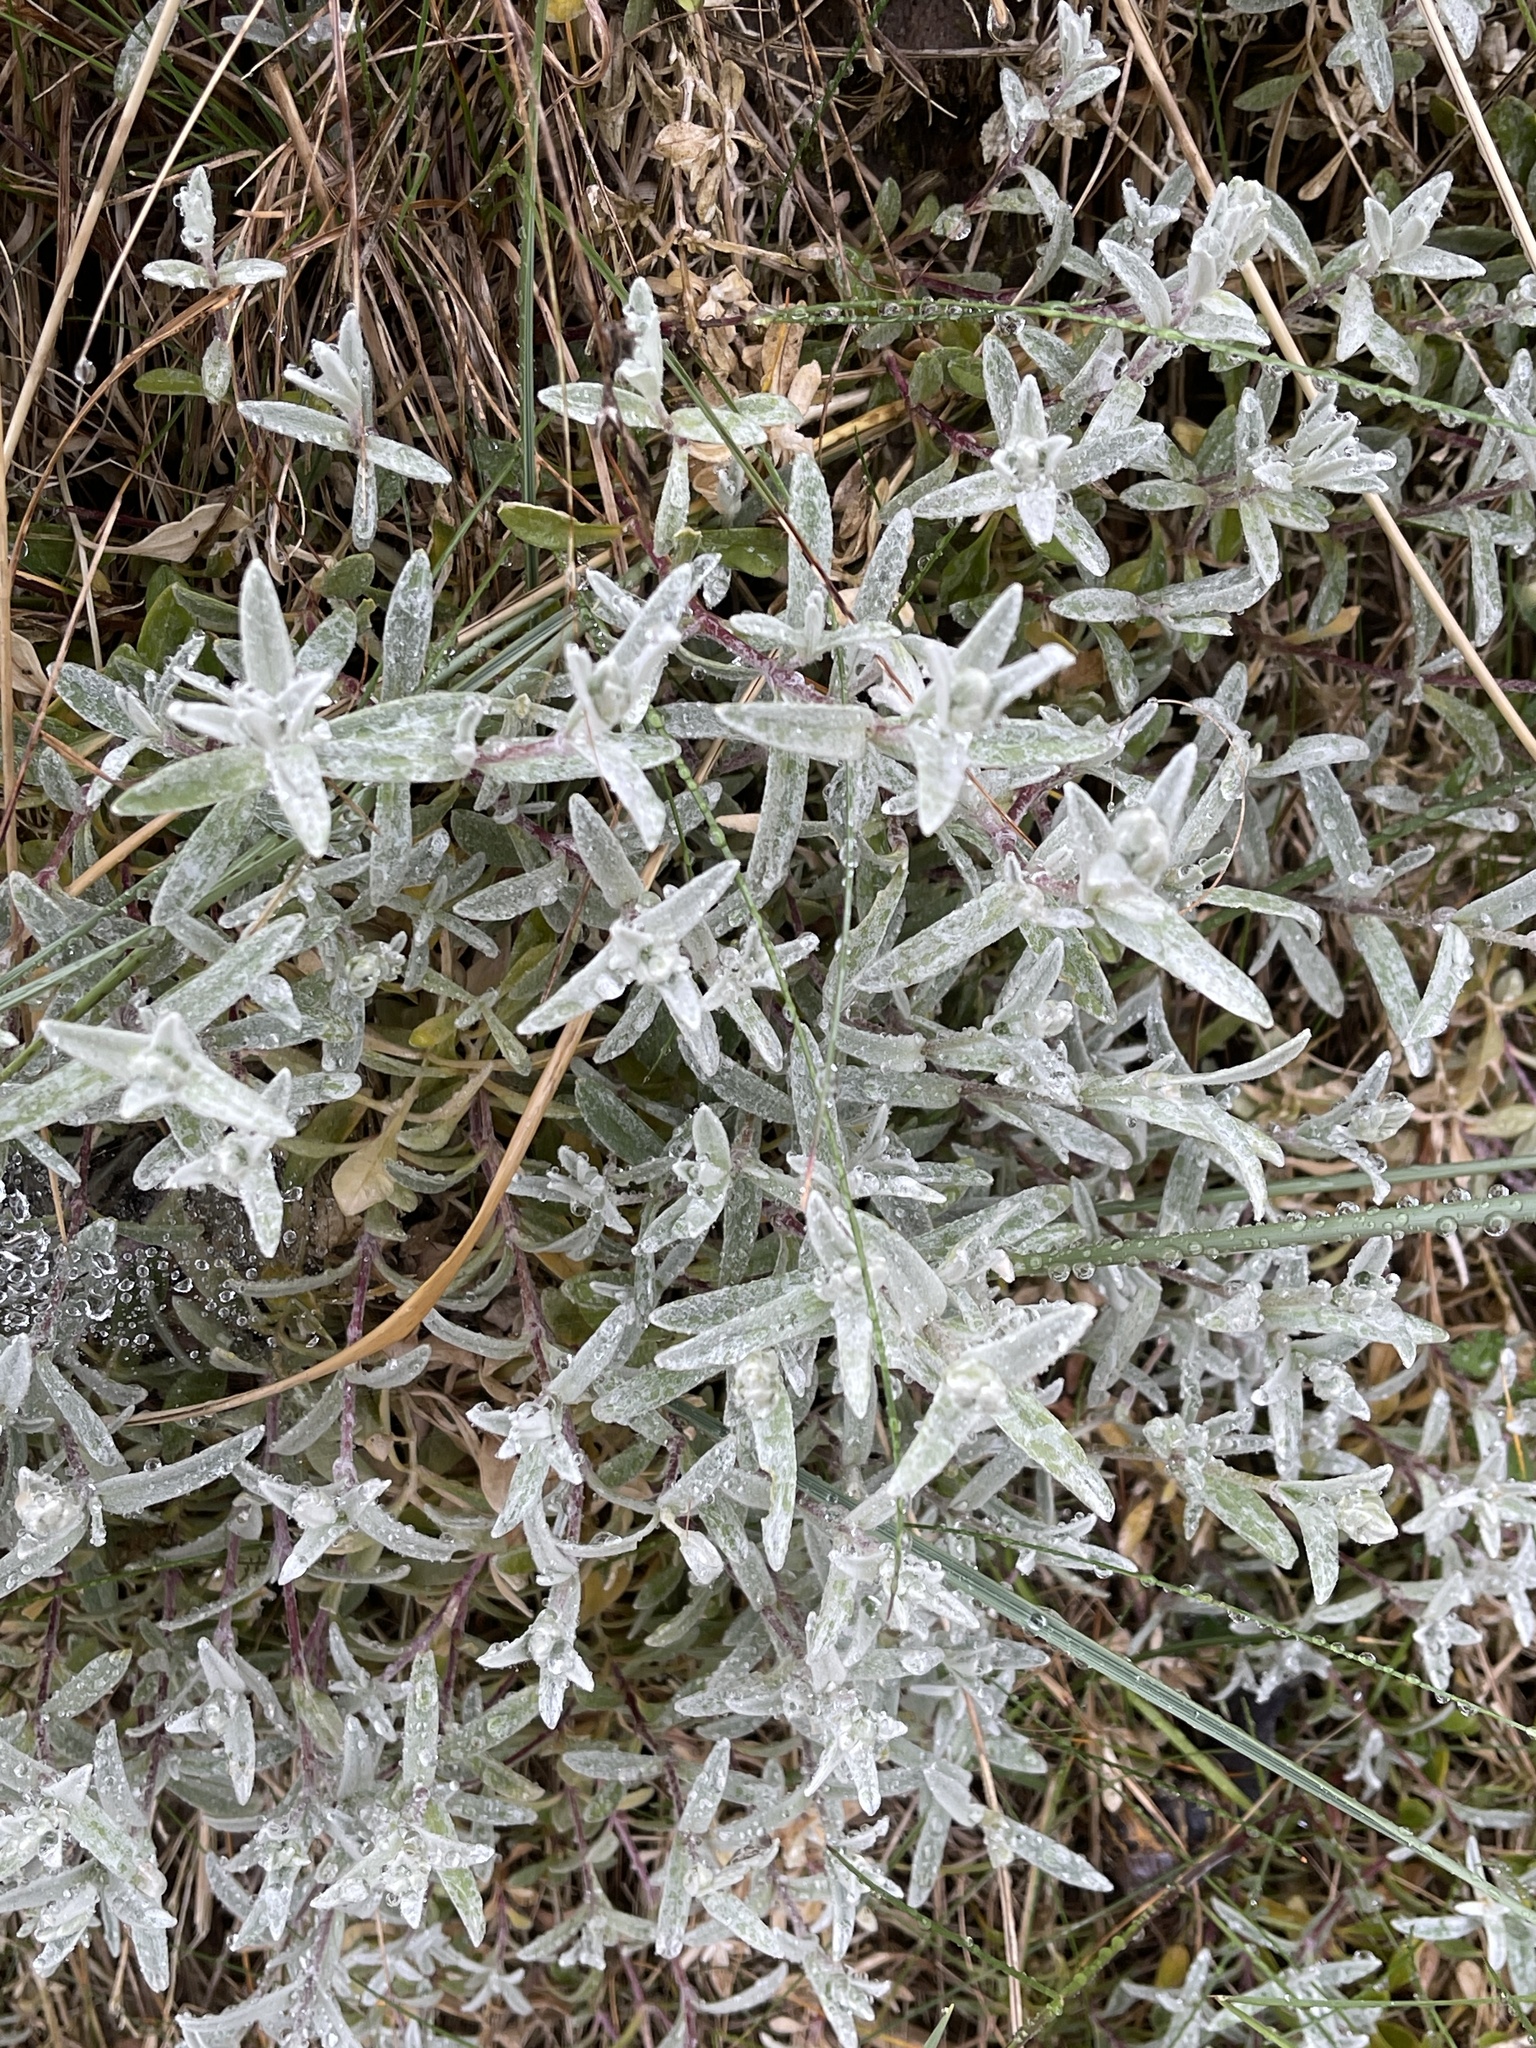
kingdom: Plantae
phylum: Tracheophyta
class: Magnoliopsida
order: Caryophyllales
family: Caryophyllaceae
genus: Cerastium
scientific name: Cerastium tomentosum
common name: Snow-in-summer
